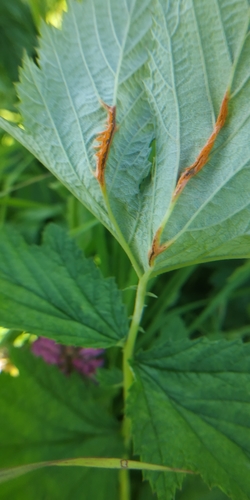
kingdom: Fungi
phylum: Basidiomycota
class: Pucciniomycetes
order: Pucciniales
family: Raveneliaceae
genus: Triphragmium
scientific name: Triphragmium ulmariae
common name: Meadowsweet rust
